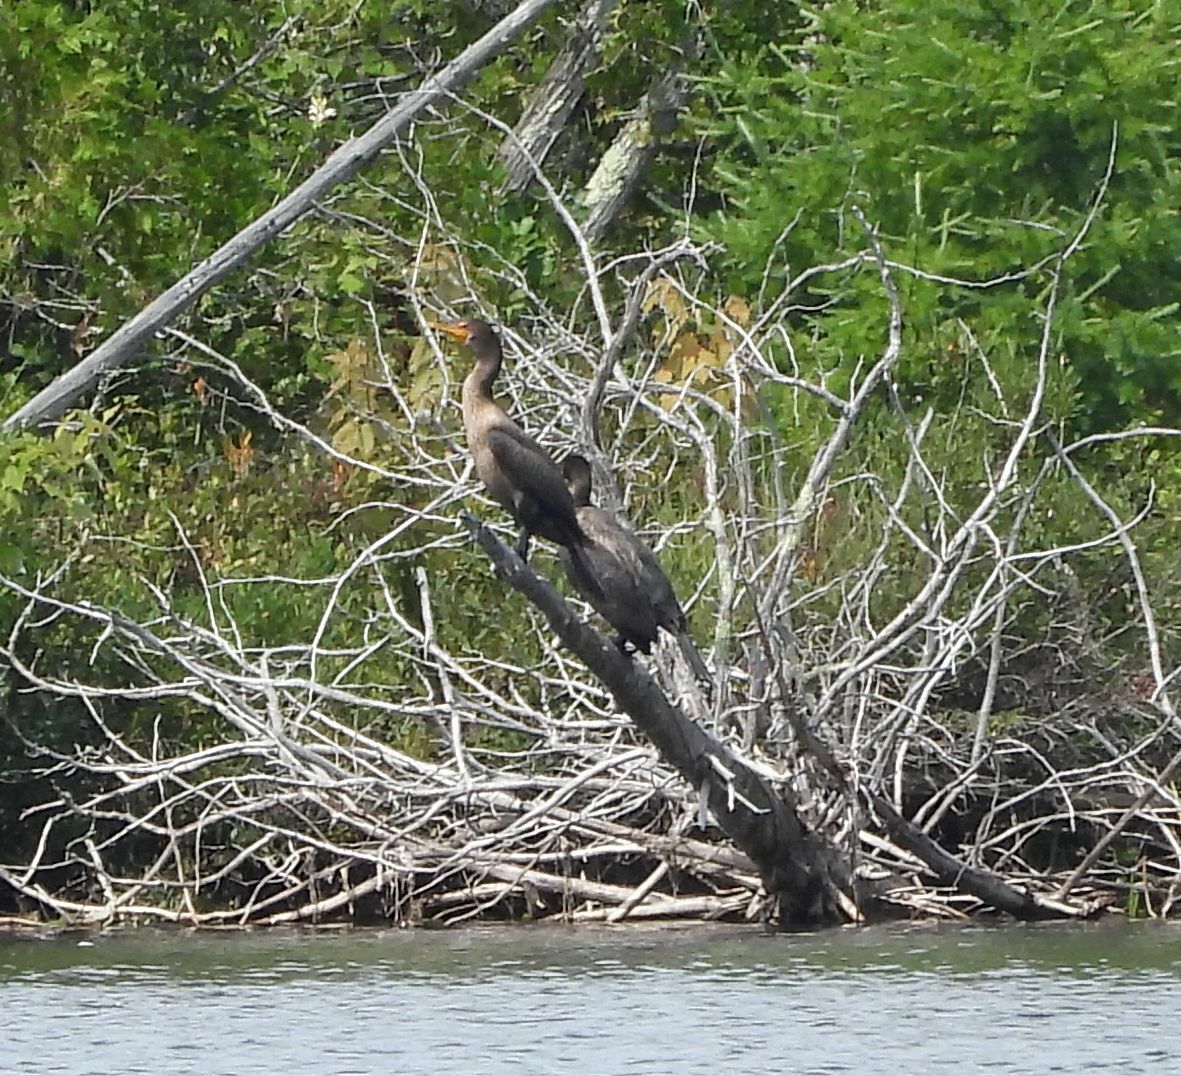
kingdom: Animalia
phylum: Chordata
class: Aves
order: Suliformes
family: Phalacrocoracidae
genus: Phalacrocorax
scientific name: Phalacrocorax auritus
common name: Double-crested cormorant
